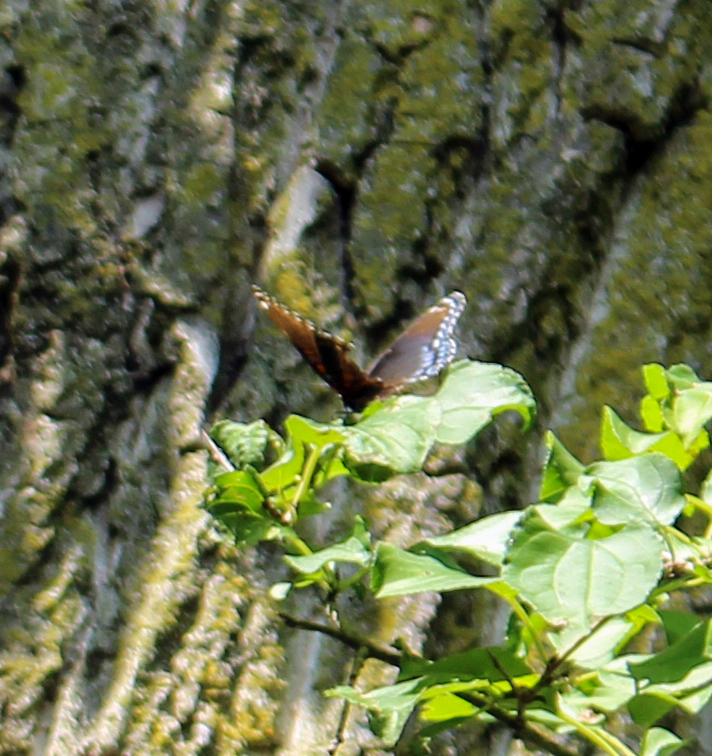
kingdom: Animalia
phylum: Arthropoda
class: Insecta
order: Lepidoptera
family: Nymphalidae
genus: Limenitis
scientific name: Limenitis astyanax
